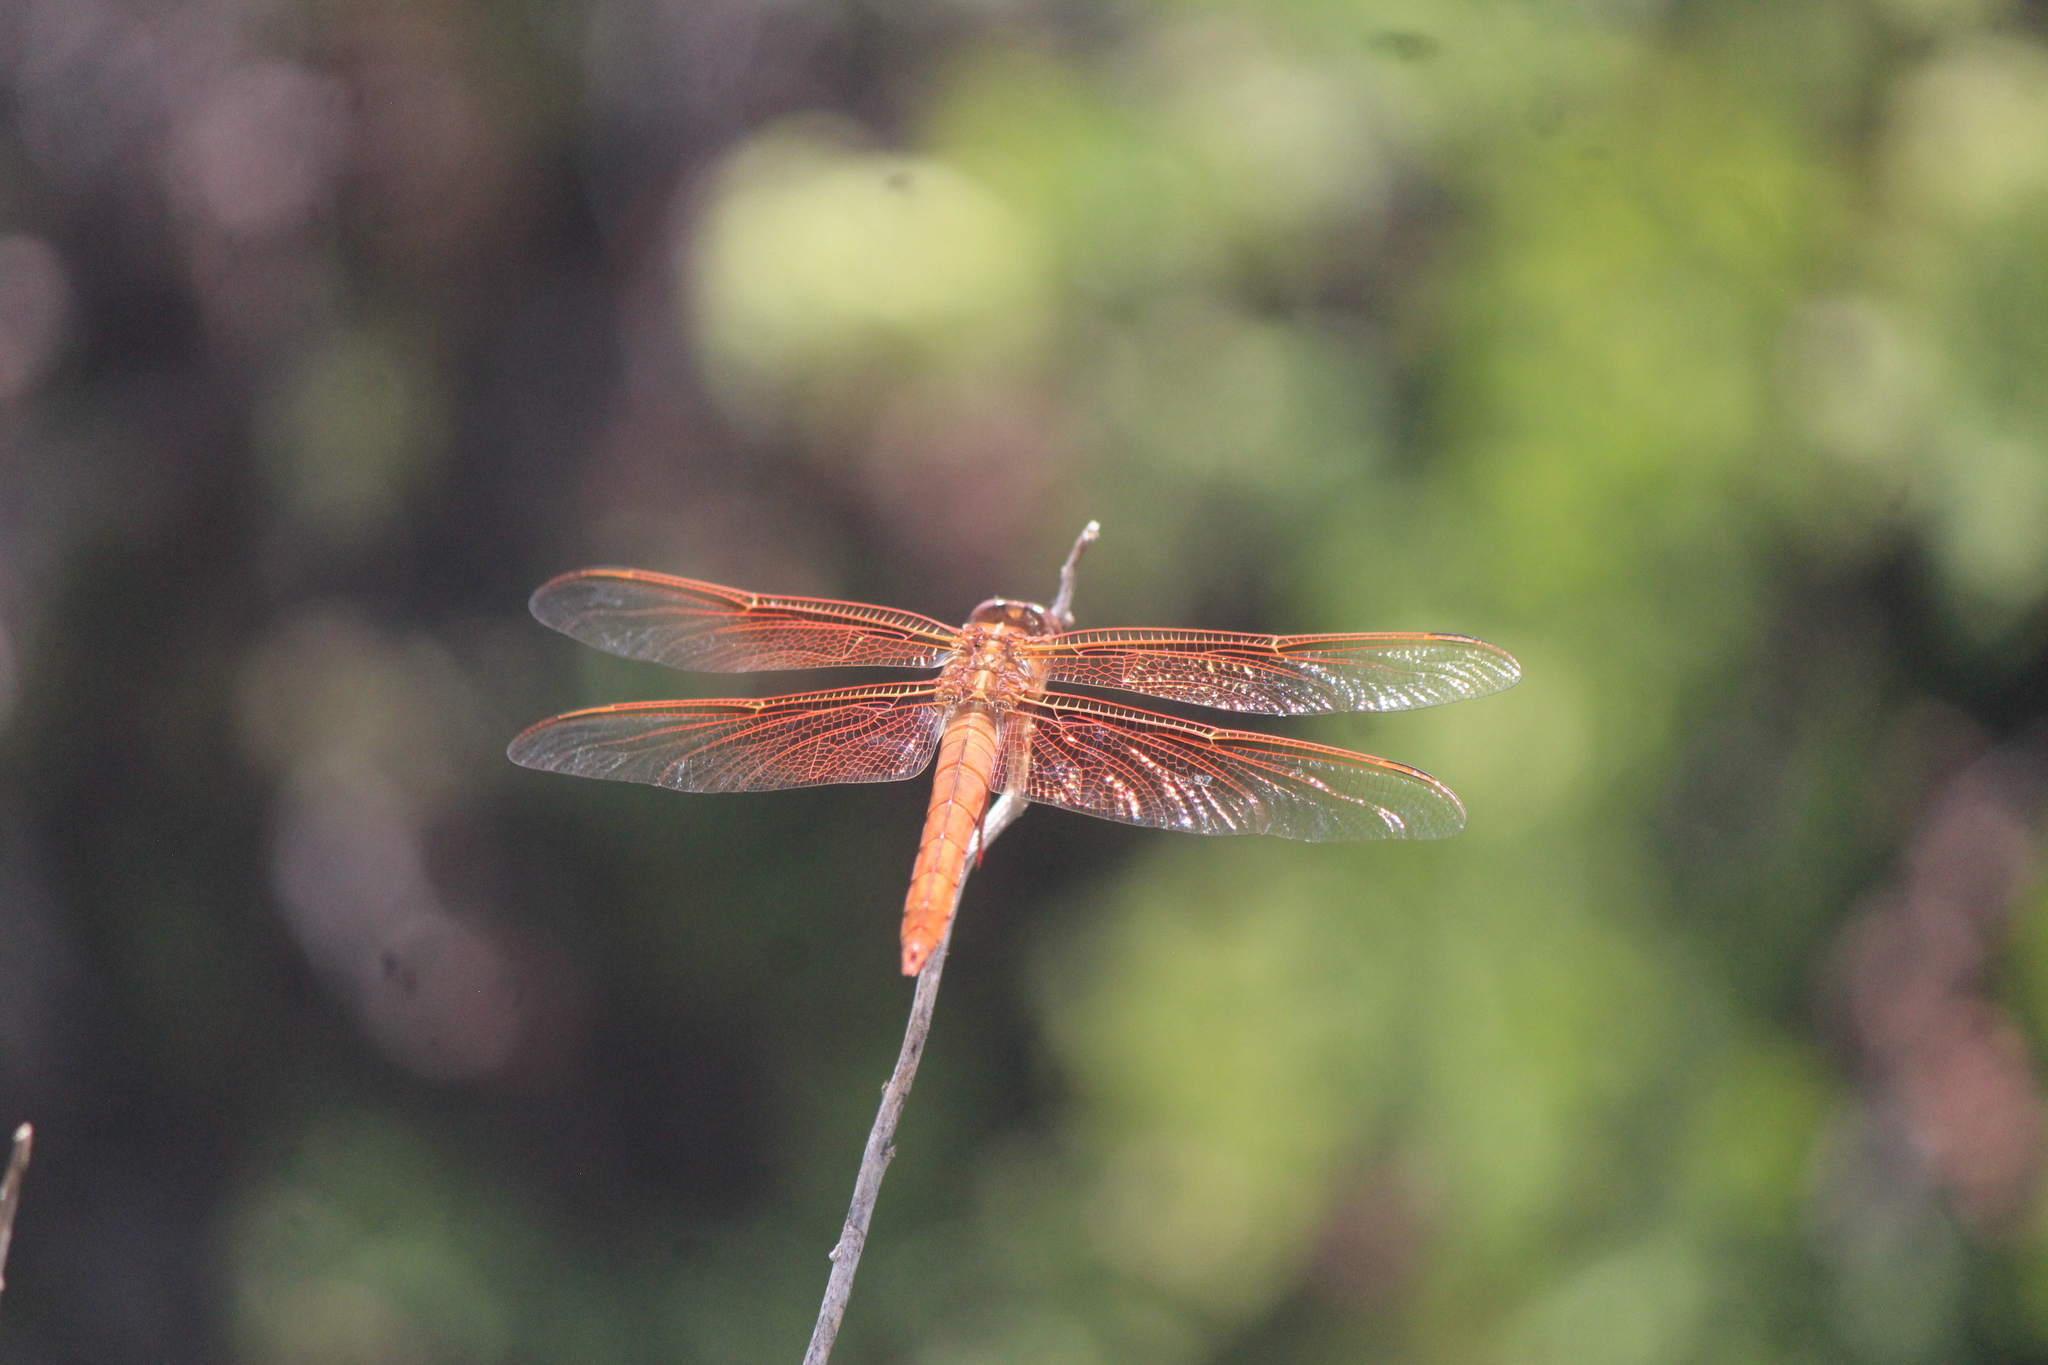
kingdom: Animalia
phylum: Arthropoda
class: Insecta
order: Odonata
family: Libellulidae
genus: Libellula
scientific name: Libellula saturata
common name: Flame skimmer
